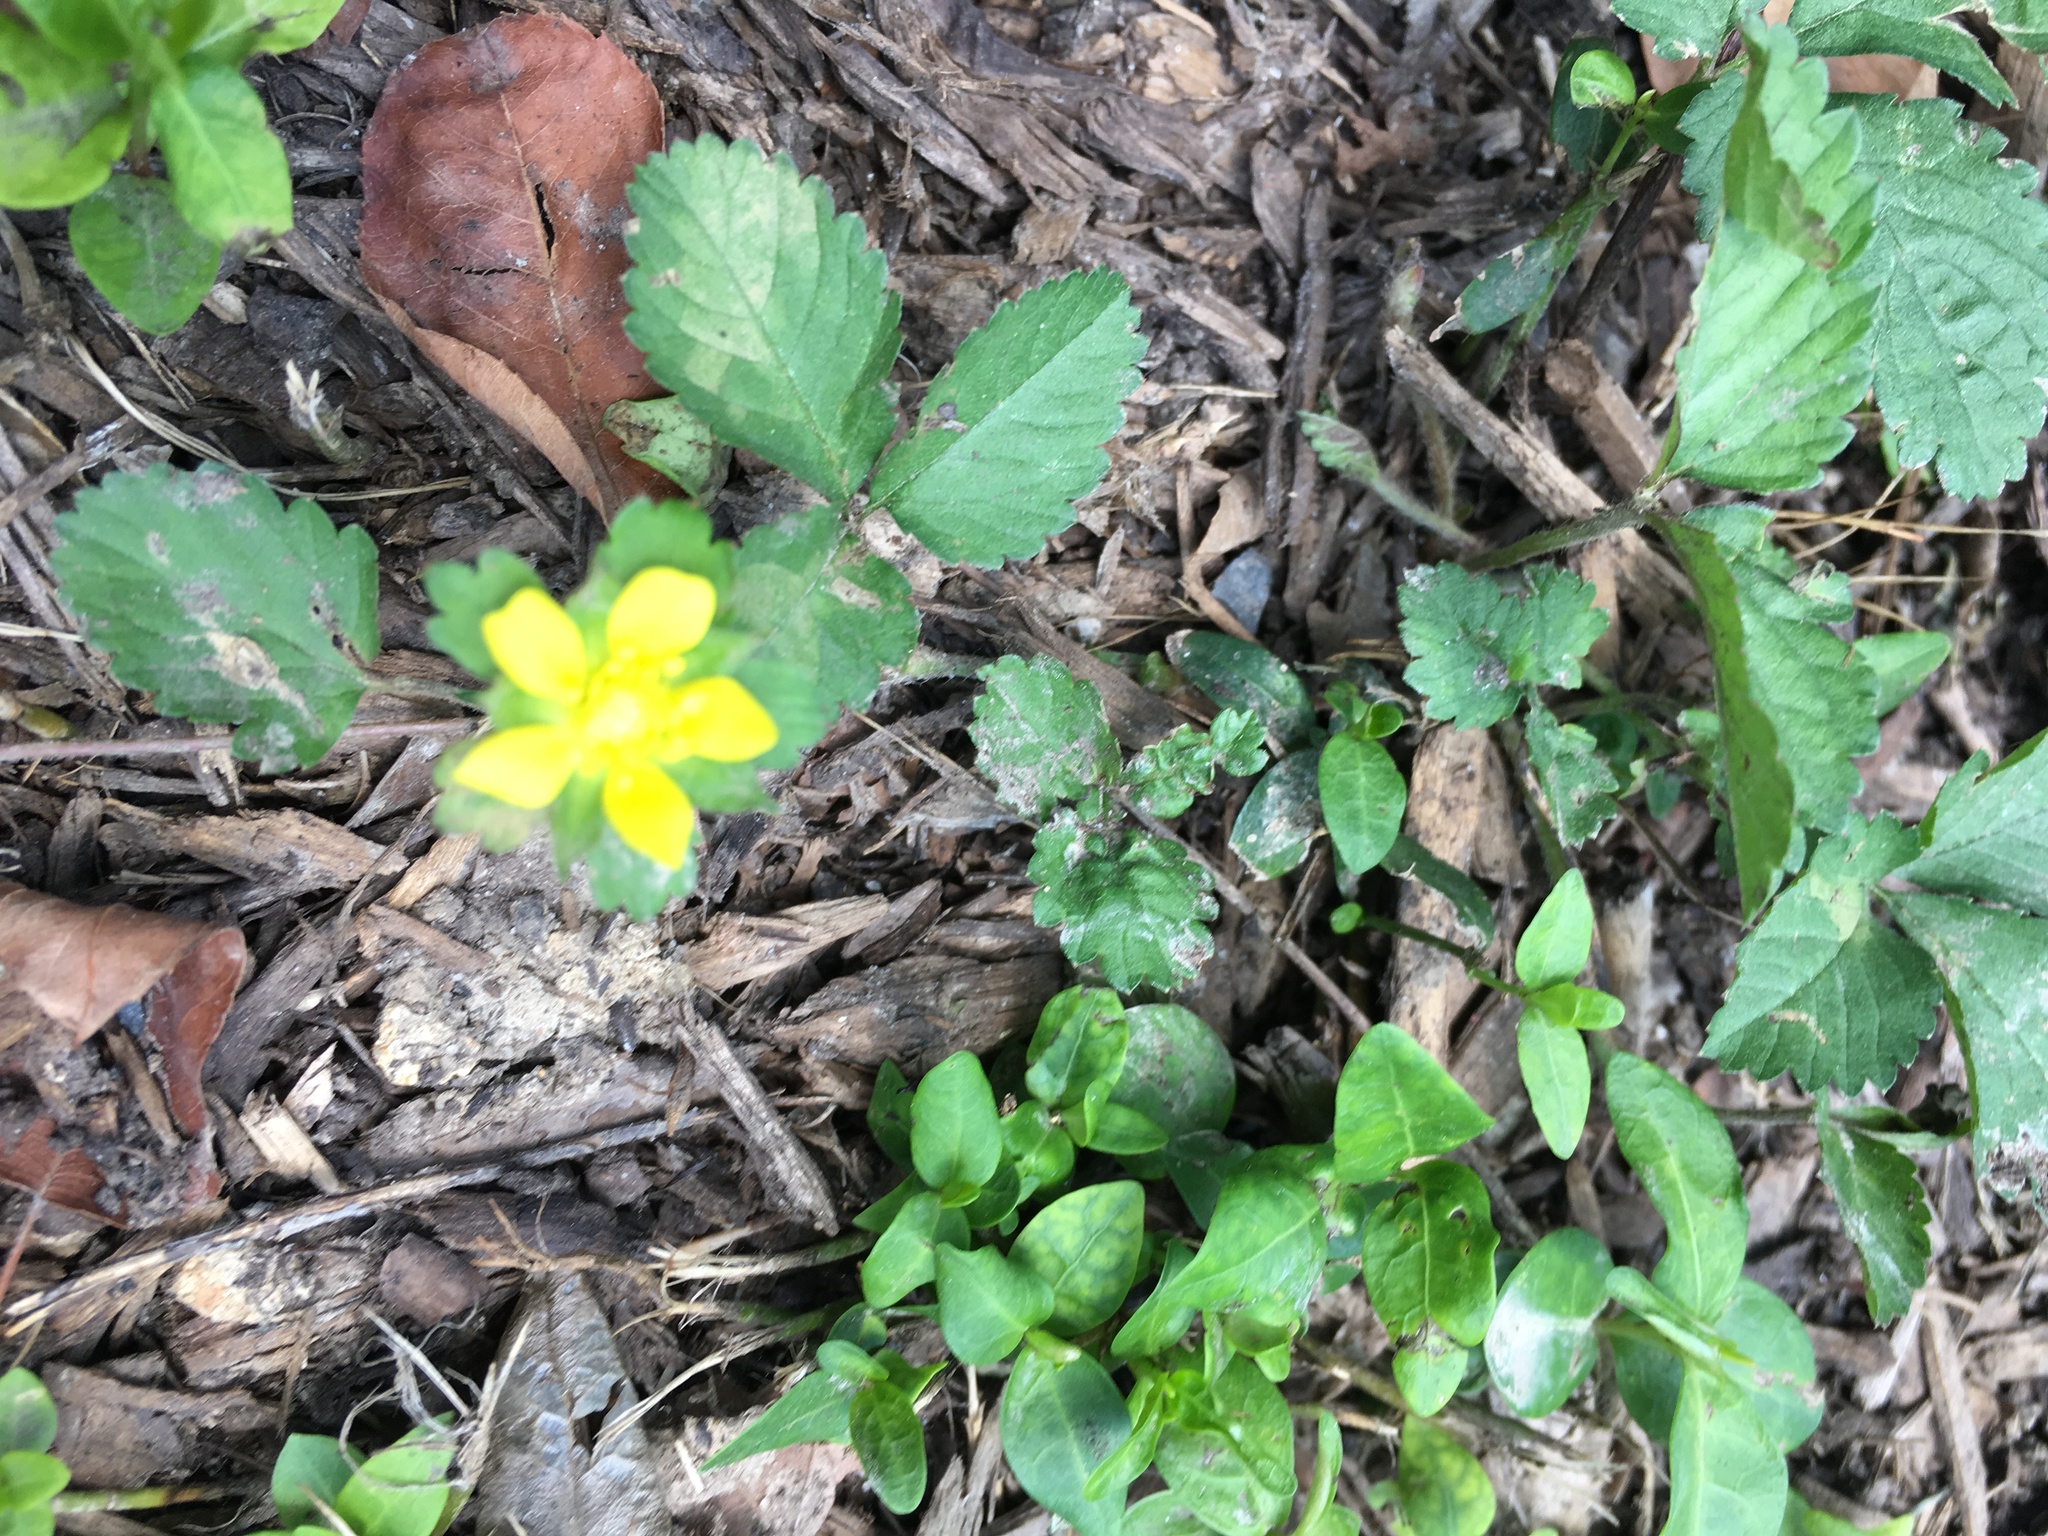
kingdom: Plantae
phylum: Tracheophyta
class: Magnoliopsida
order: Rosales
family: Rosaceae
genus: Potentilla
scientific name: Potentilla indica
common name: Yellow-flowered strawberry
